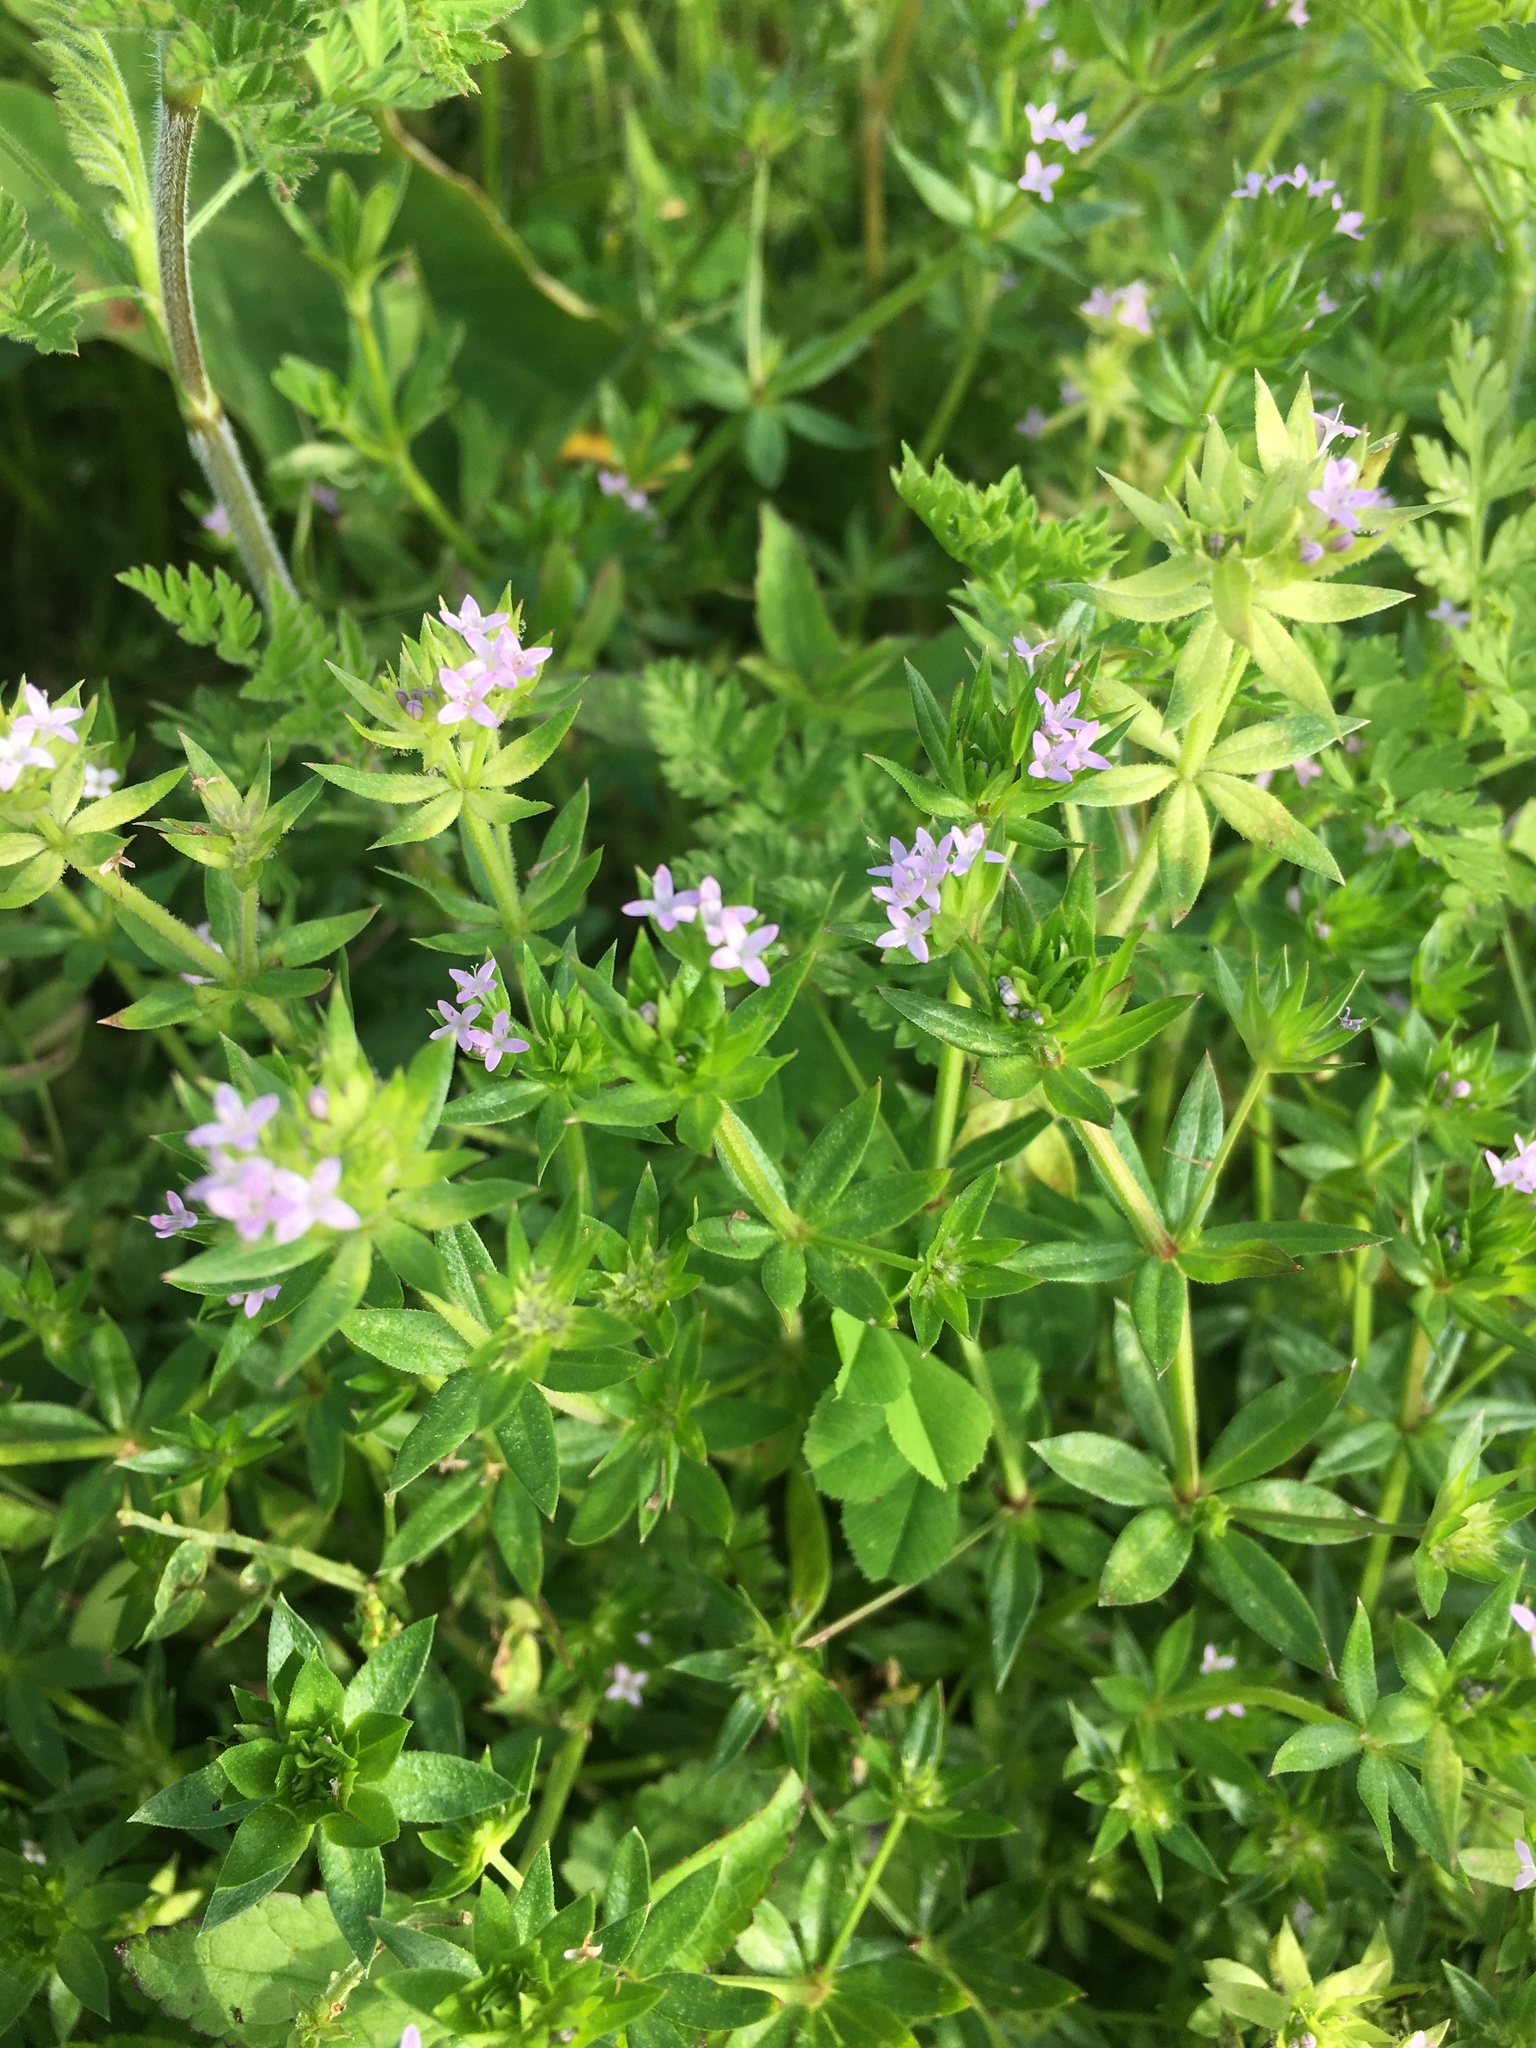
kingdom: Plantae
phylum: Tracheophyta
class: Magnoliopsida
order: Gentianales
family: Rubiaceae
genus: Sherardia
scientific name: Sherardia arvensis
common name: Field madder
